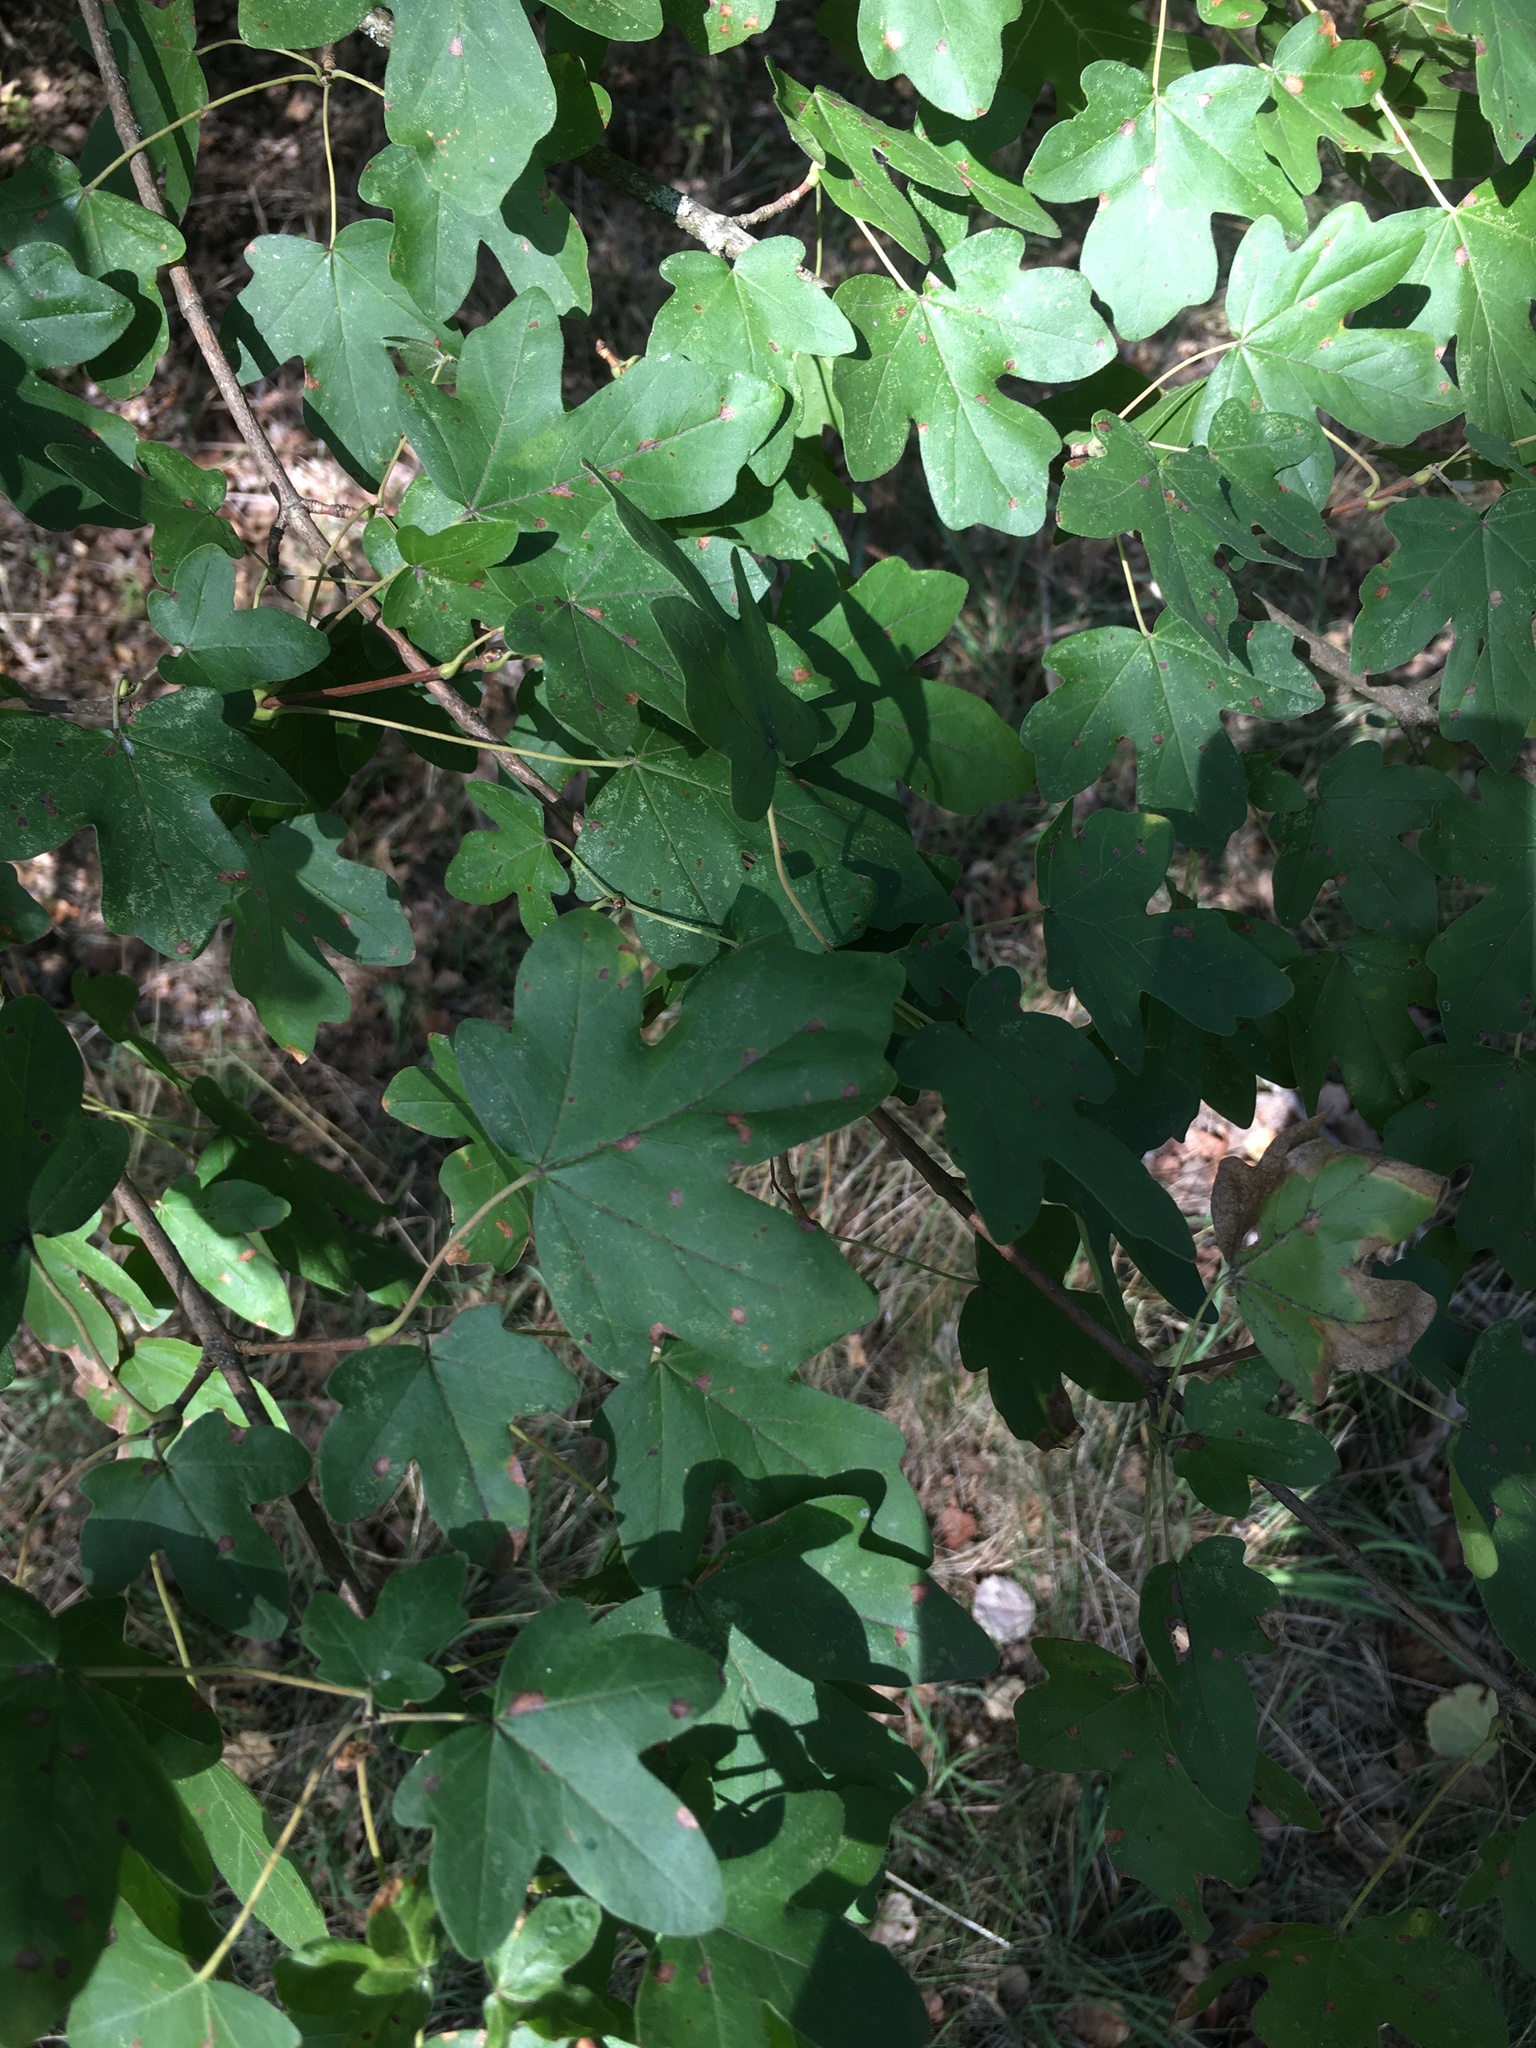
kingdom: Plantae
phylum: Tracheophyta
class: Magnoliopsida
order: Sapindales
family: Sapindaceae
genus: Acer
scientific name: Acer campestre
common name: Field maple
